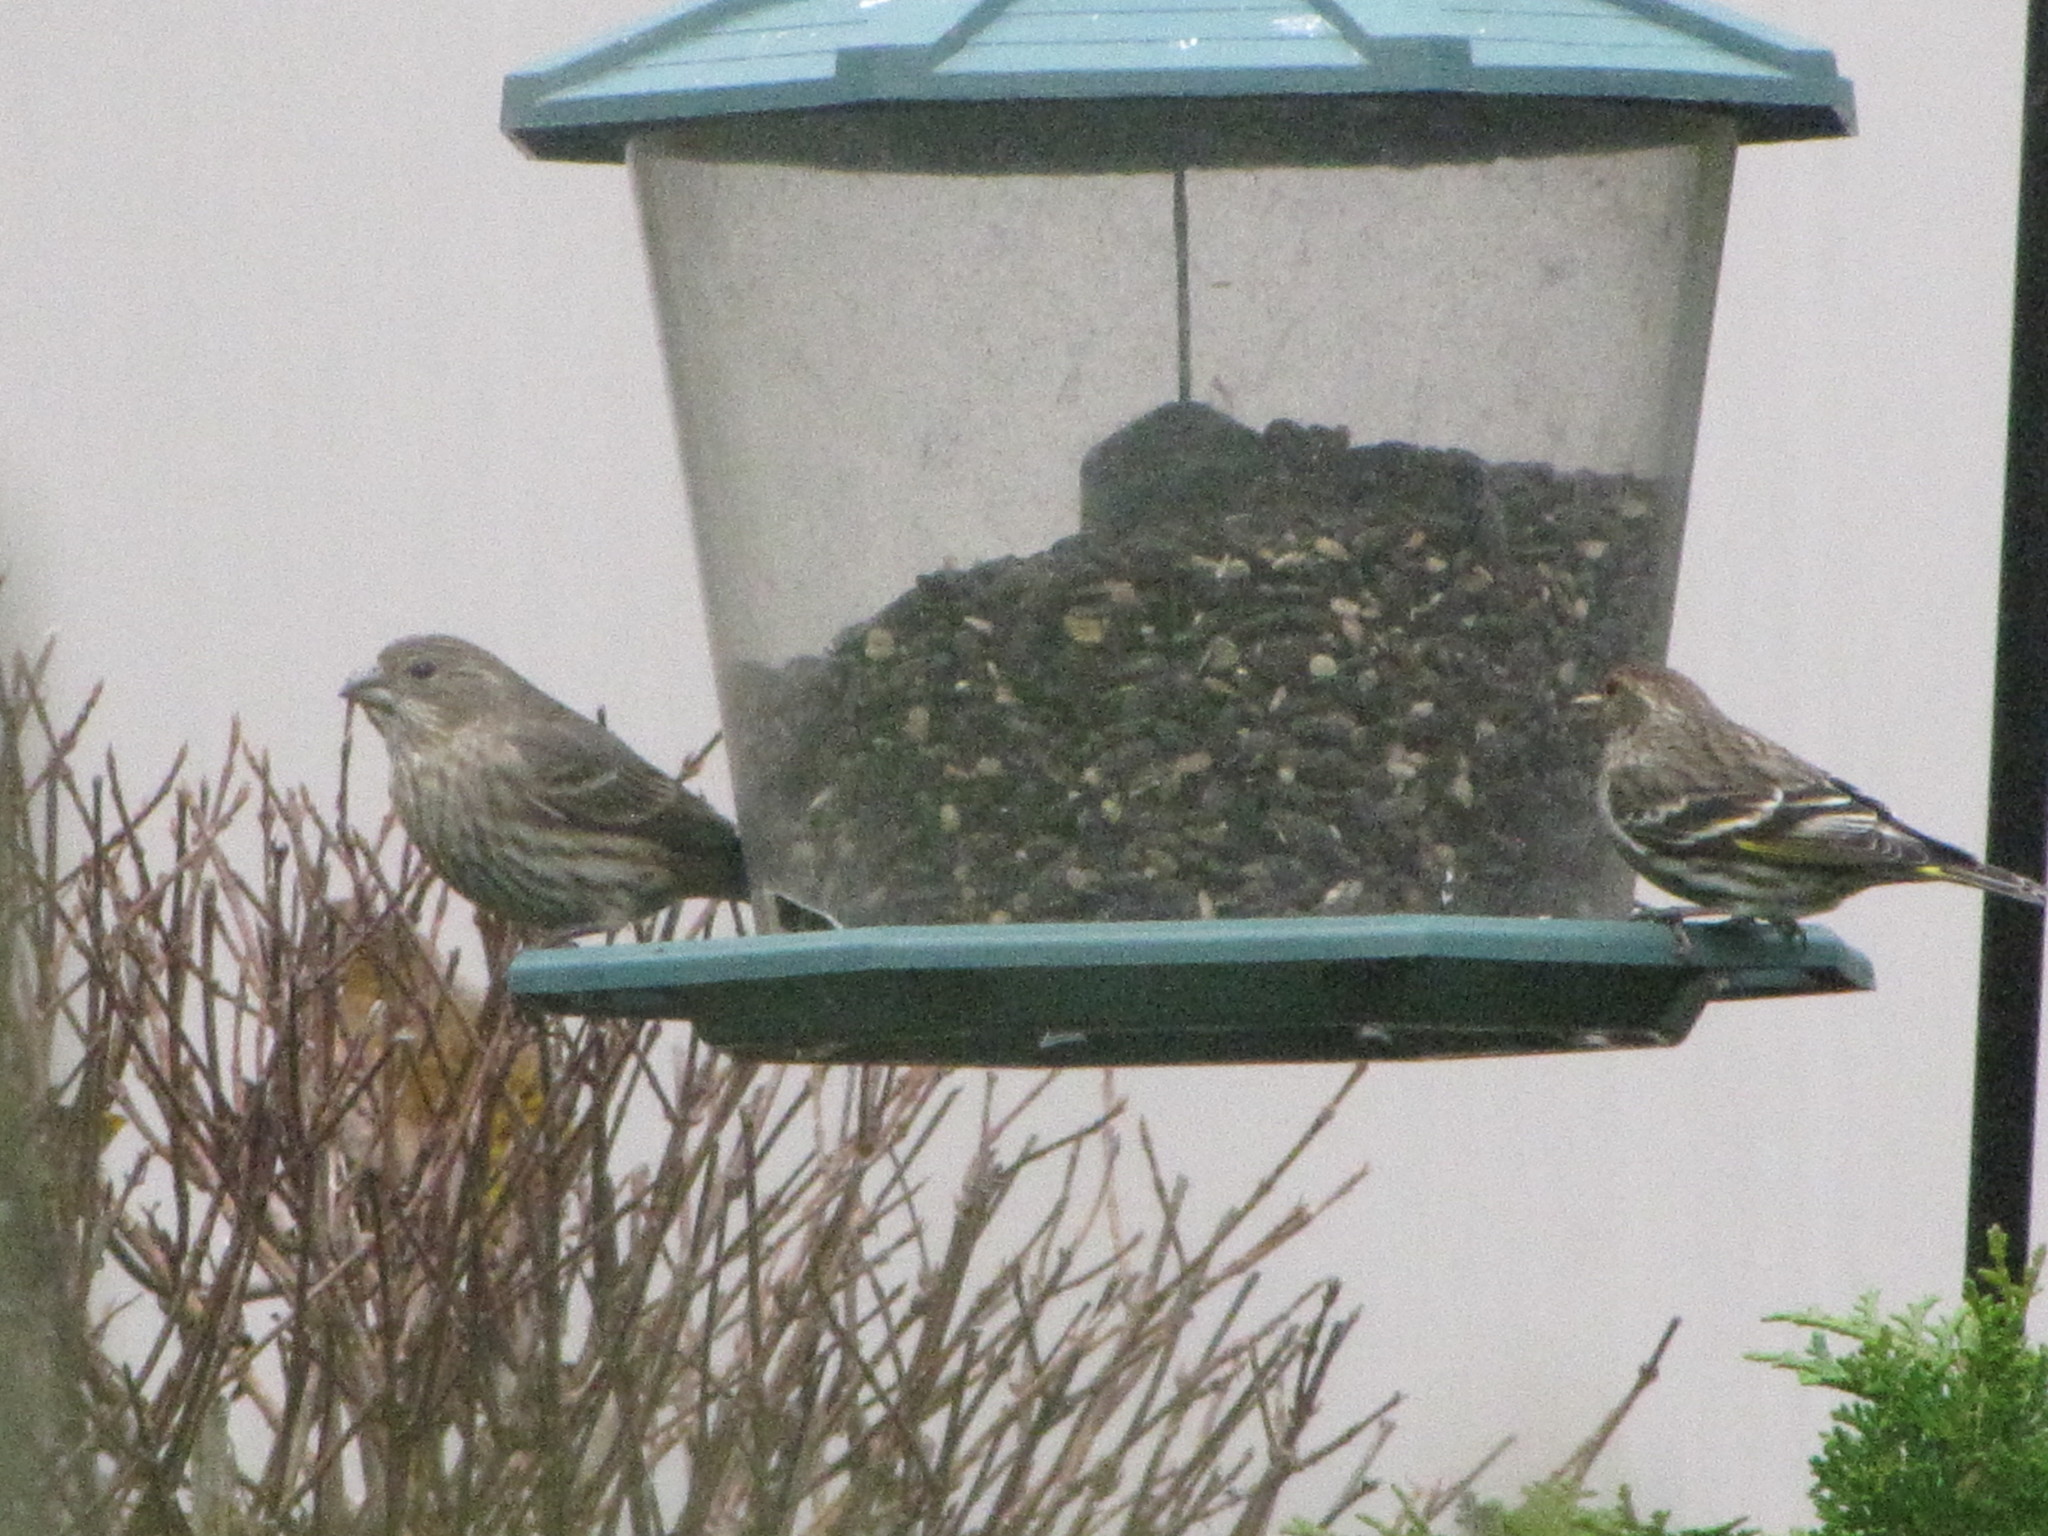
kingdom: Animalia
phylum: Chordata
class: Aves
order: Passeriformes
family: Fringillidae
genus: Spinus
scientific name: Spinus pinus
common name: Pine siskin
